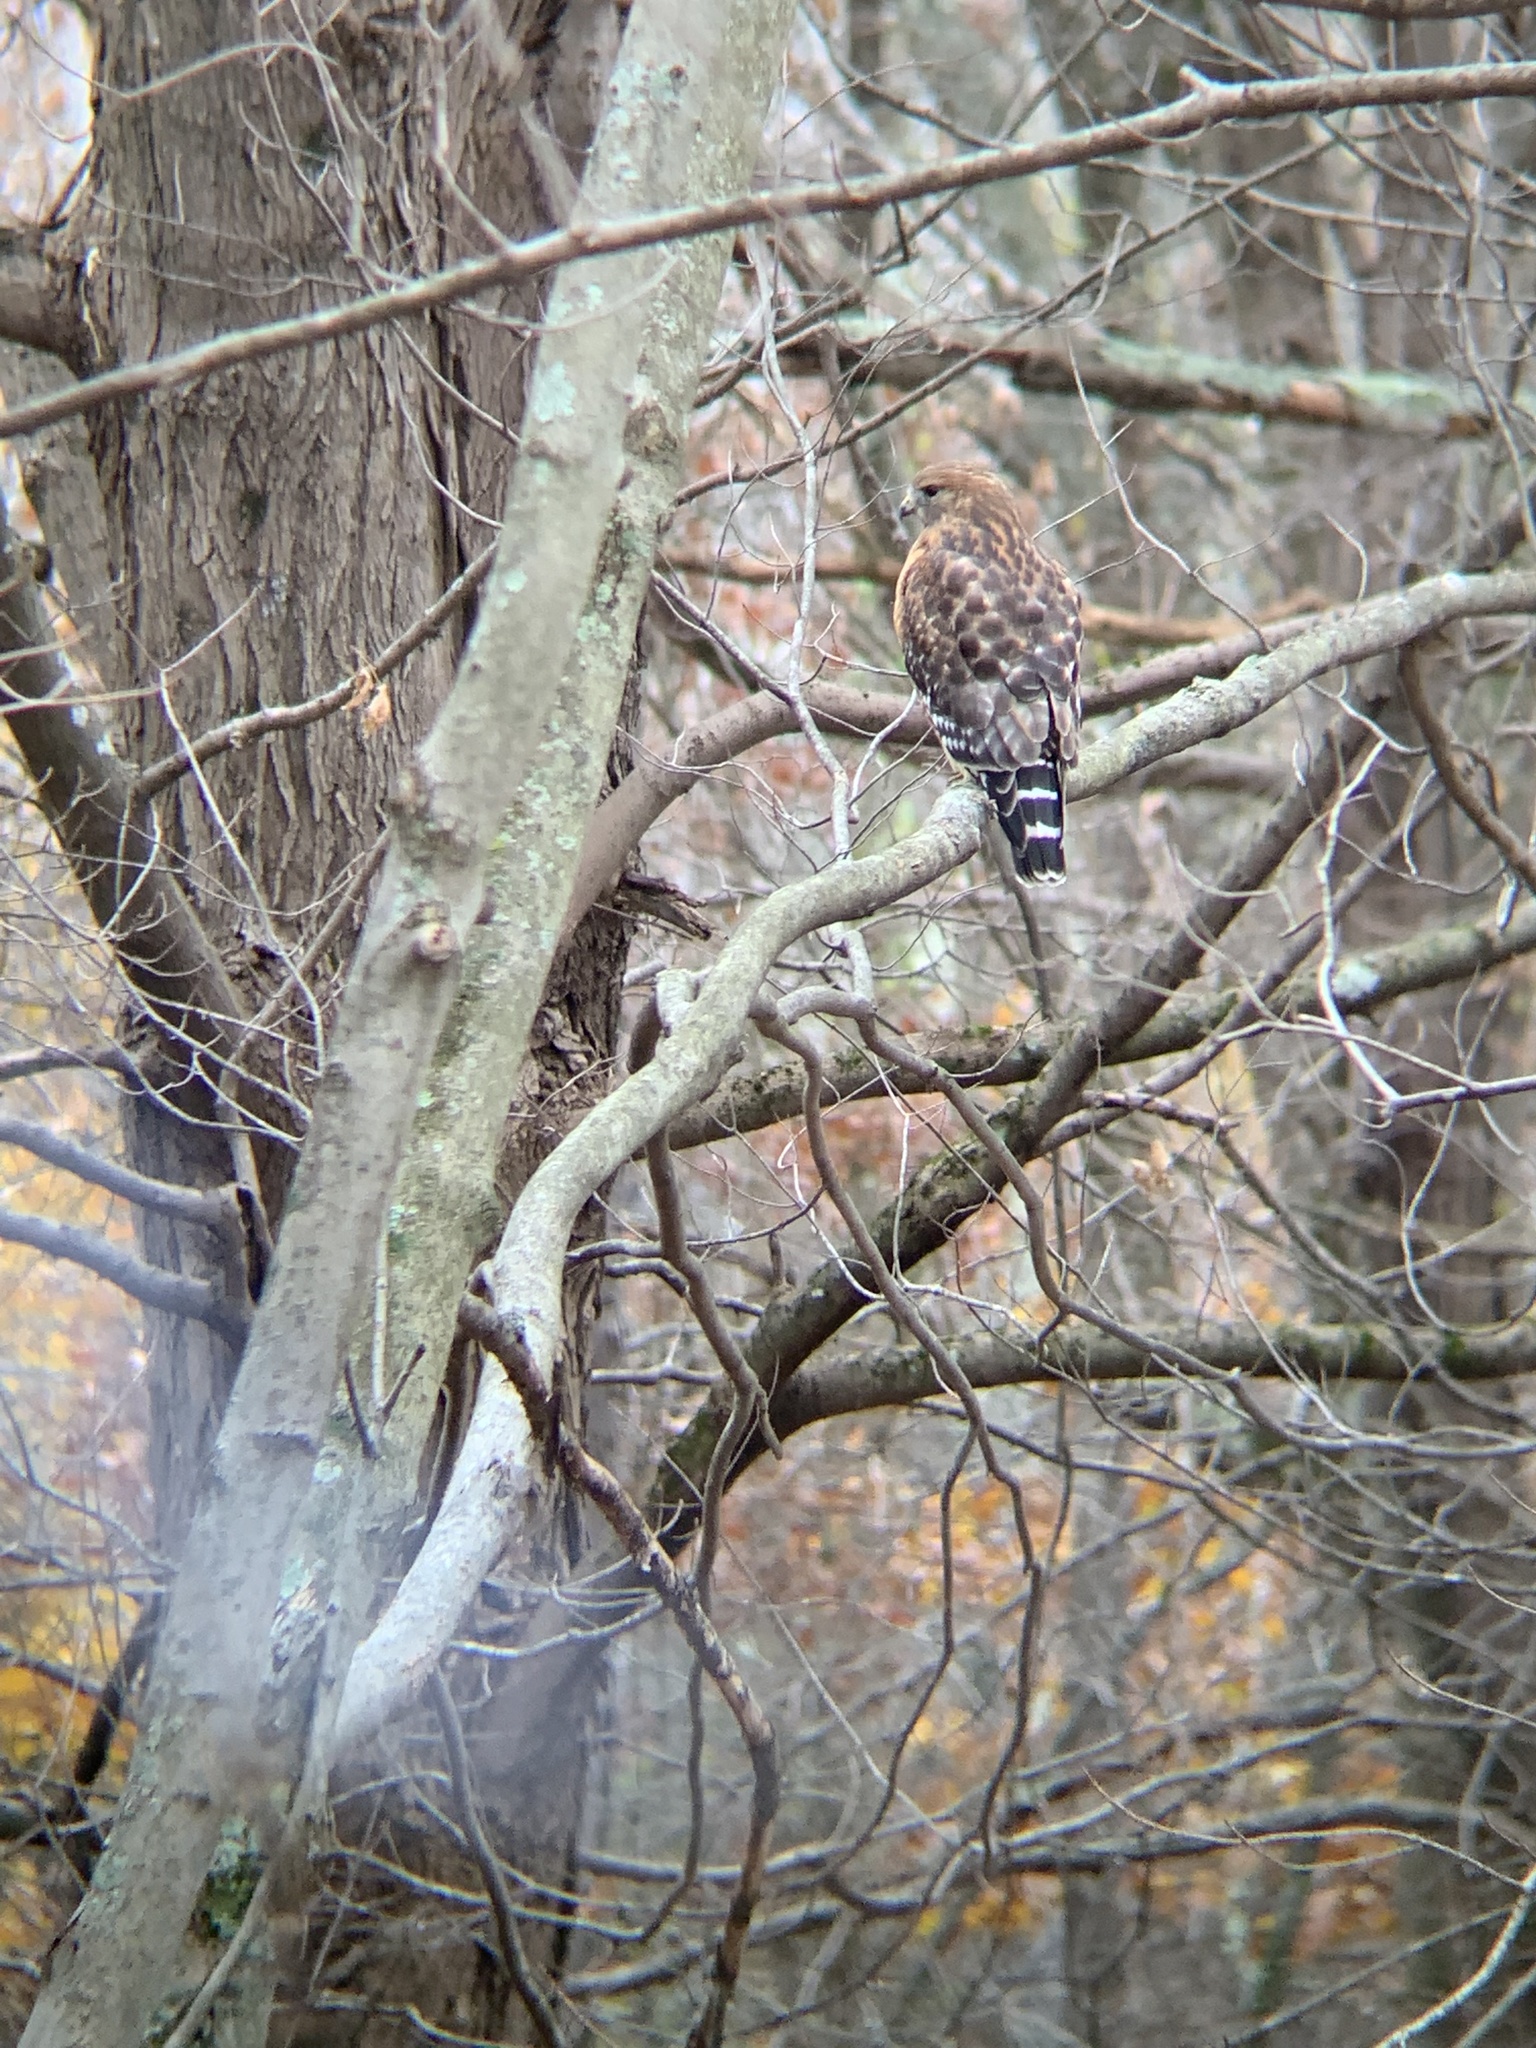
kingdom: Animalia
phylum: Chordata
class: Aves
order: Accipitriformes
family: Accipitridae
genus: Buteo
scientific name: Buteo lineatus
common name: Red-shouldered hawk
